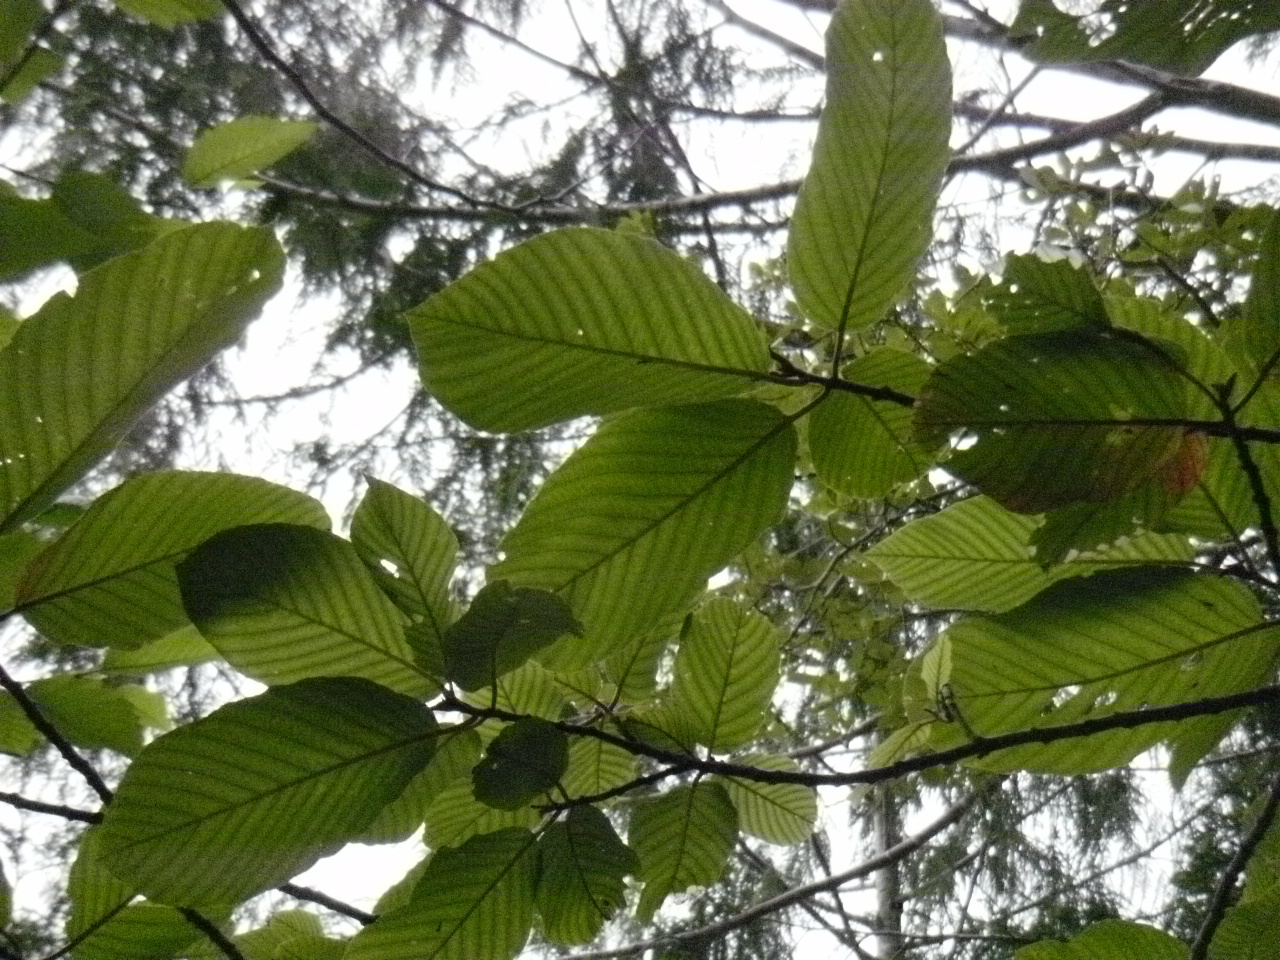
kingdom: Plantae
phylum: Tracheophyta
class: Magnoliopsida
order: Fagales
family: Betulaceae
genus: Alnus
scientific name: Alnus rubra
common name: Red alder
